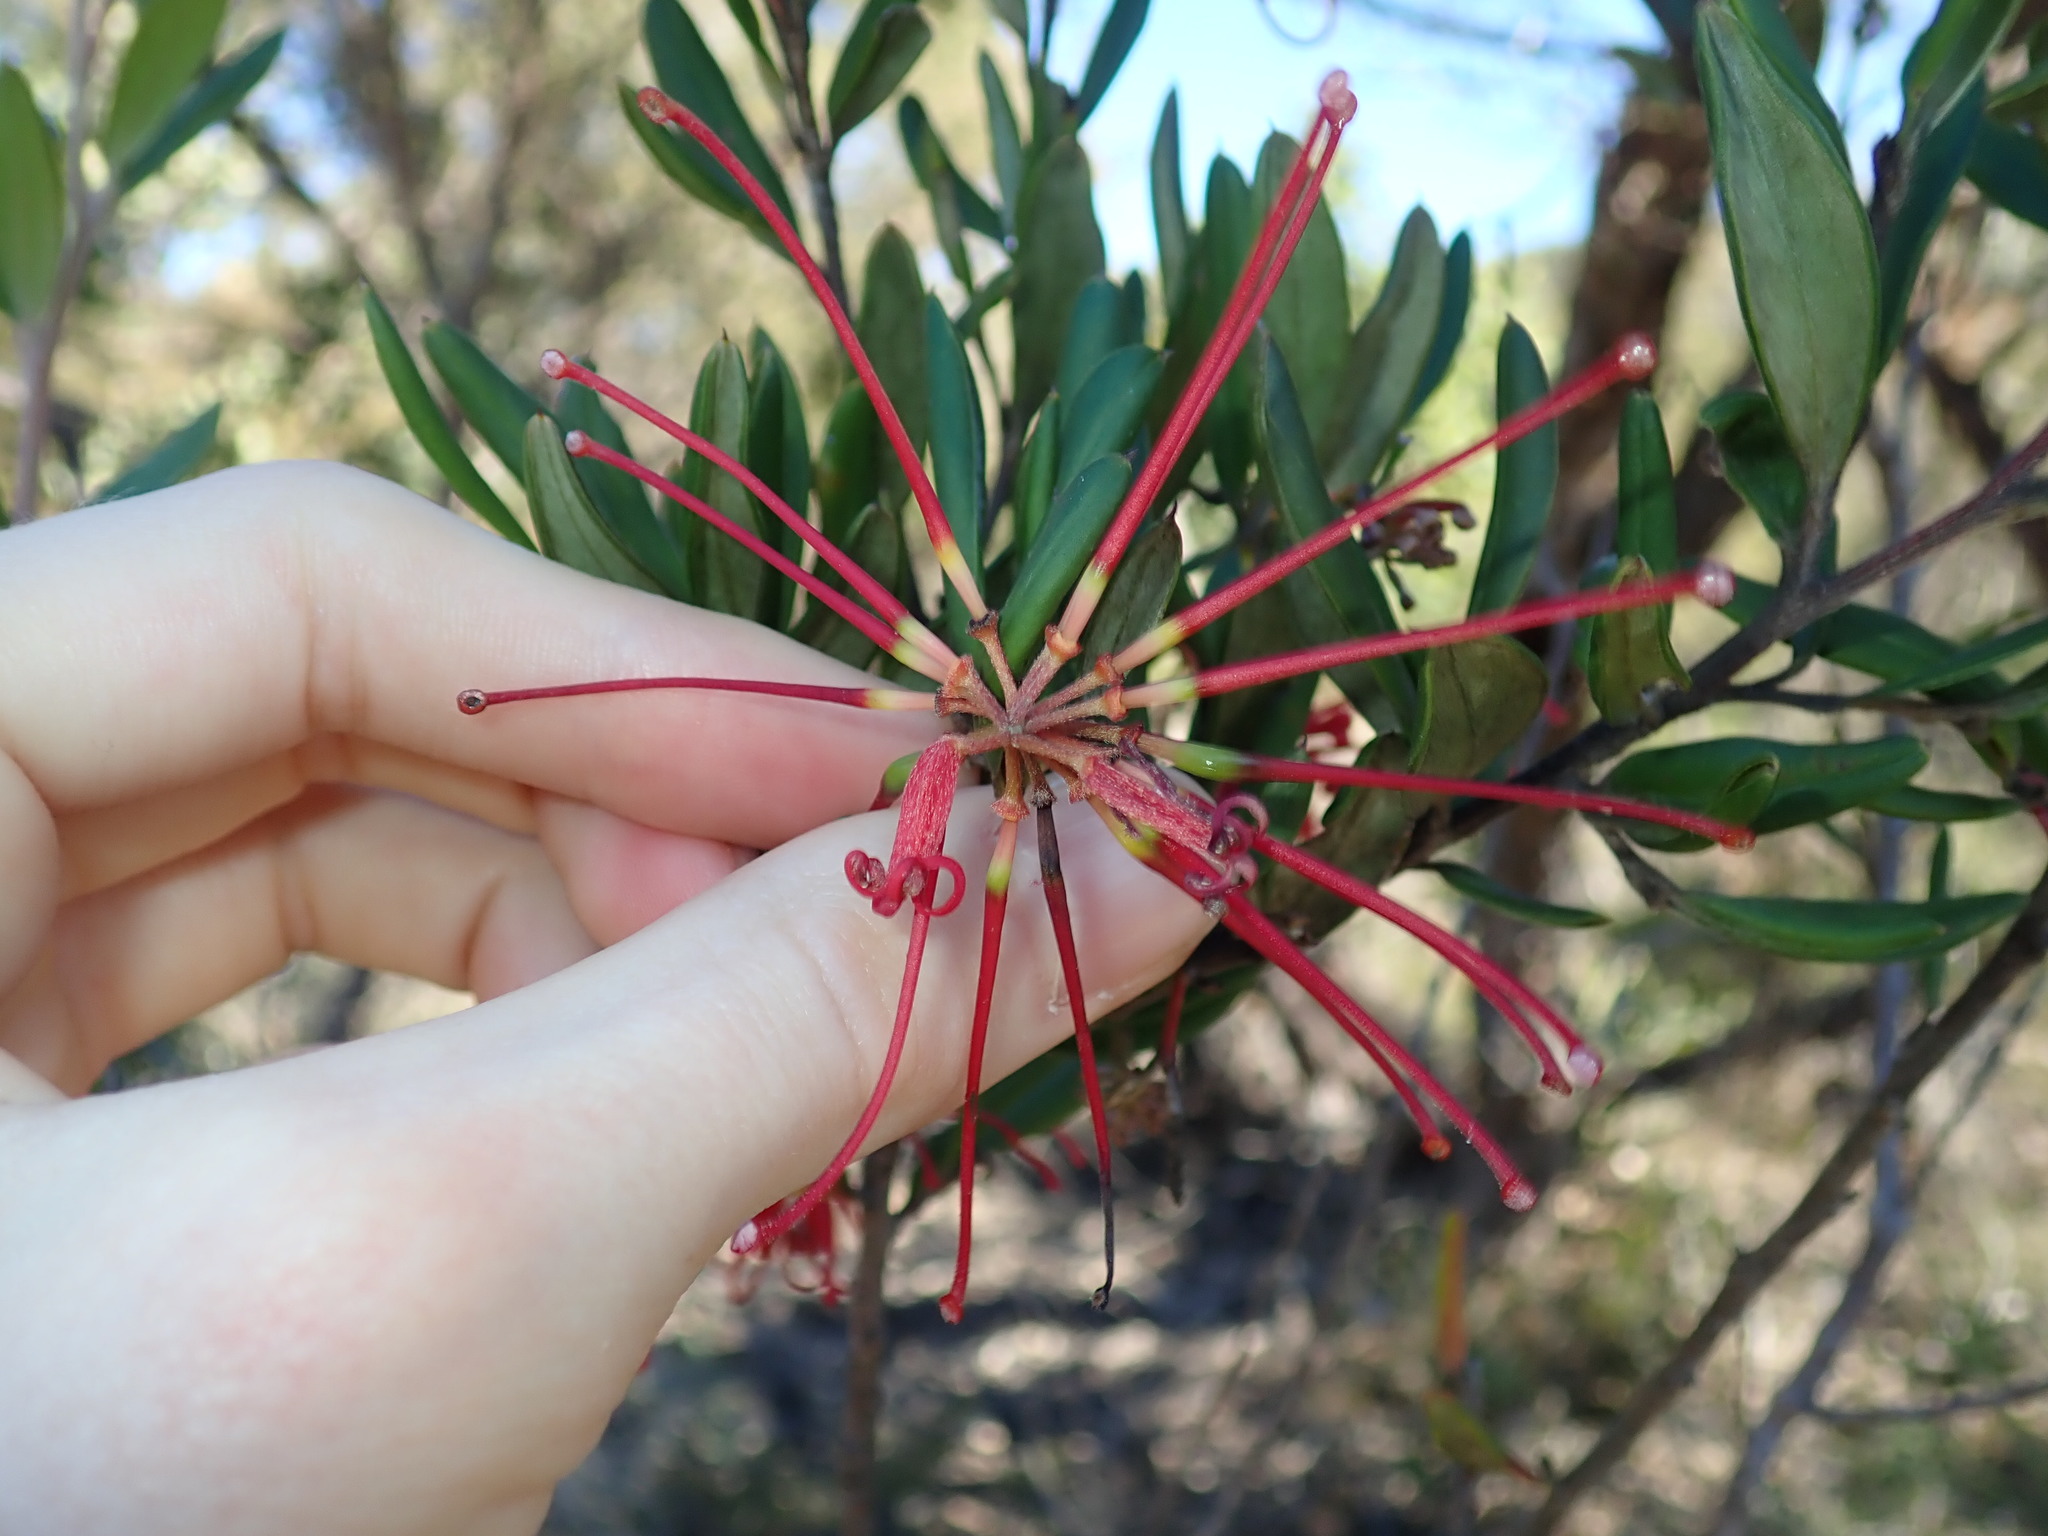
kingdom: Plantae
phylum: Tracheophyta
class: Magnoliopsida
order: Proteales
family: Proteaceae
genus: Grevillea
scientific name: Grevillea speciosa
